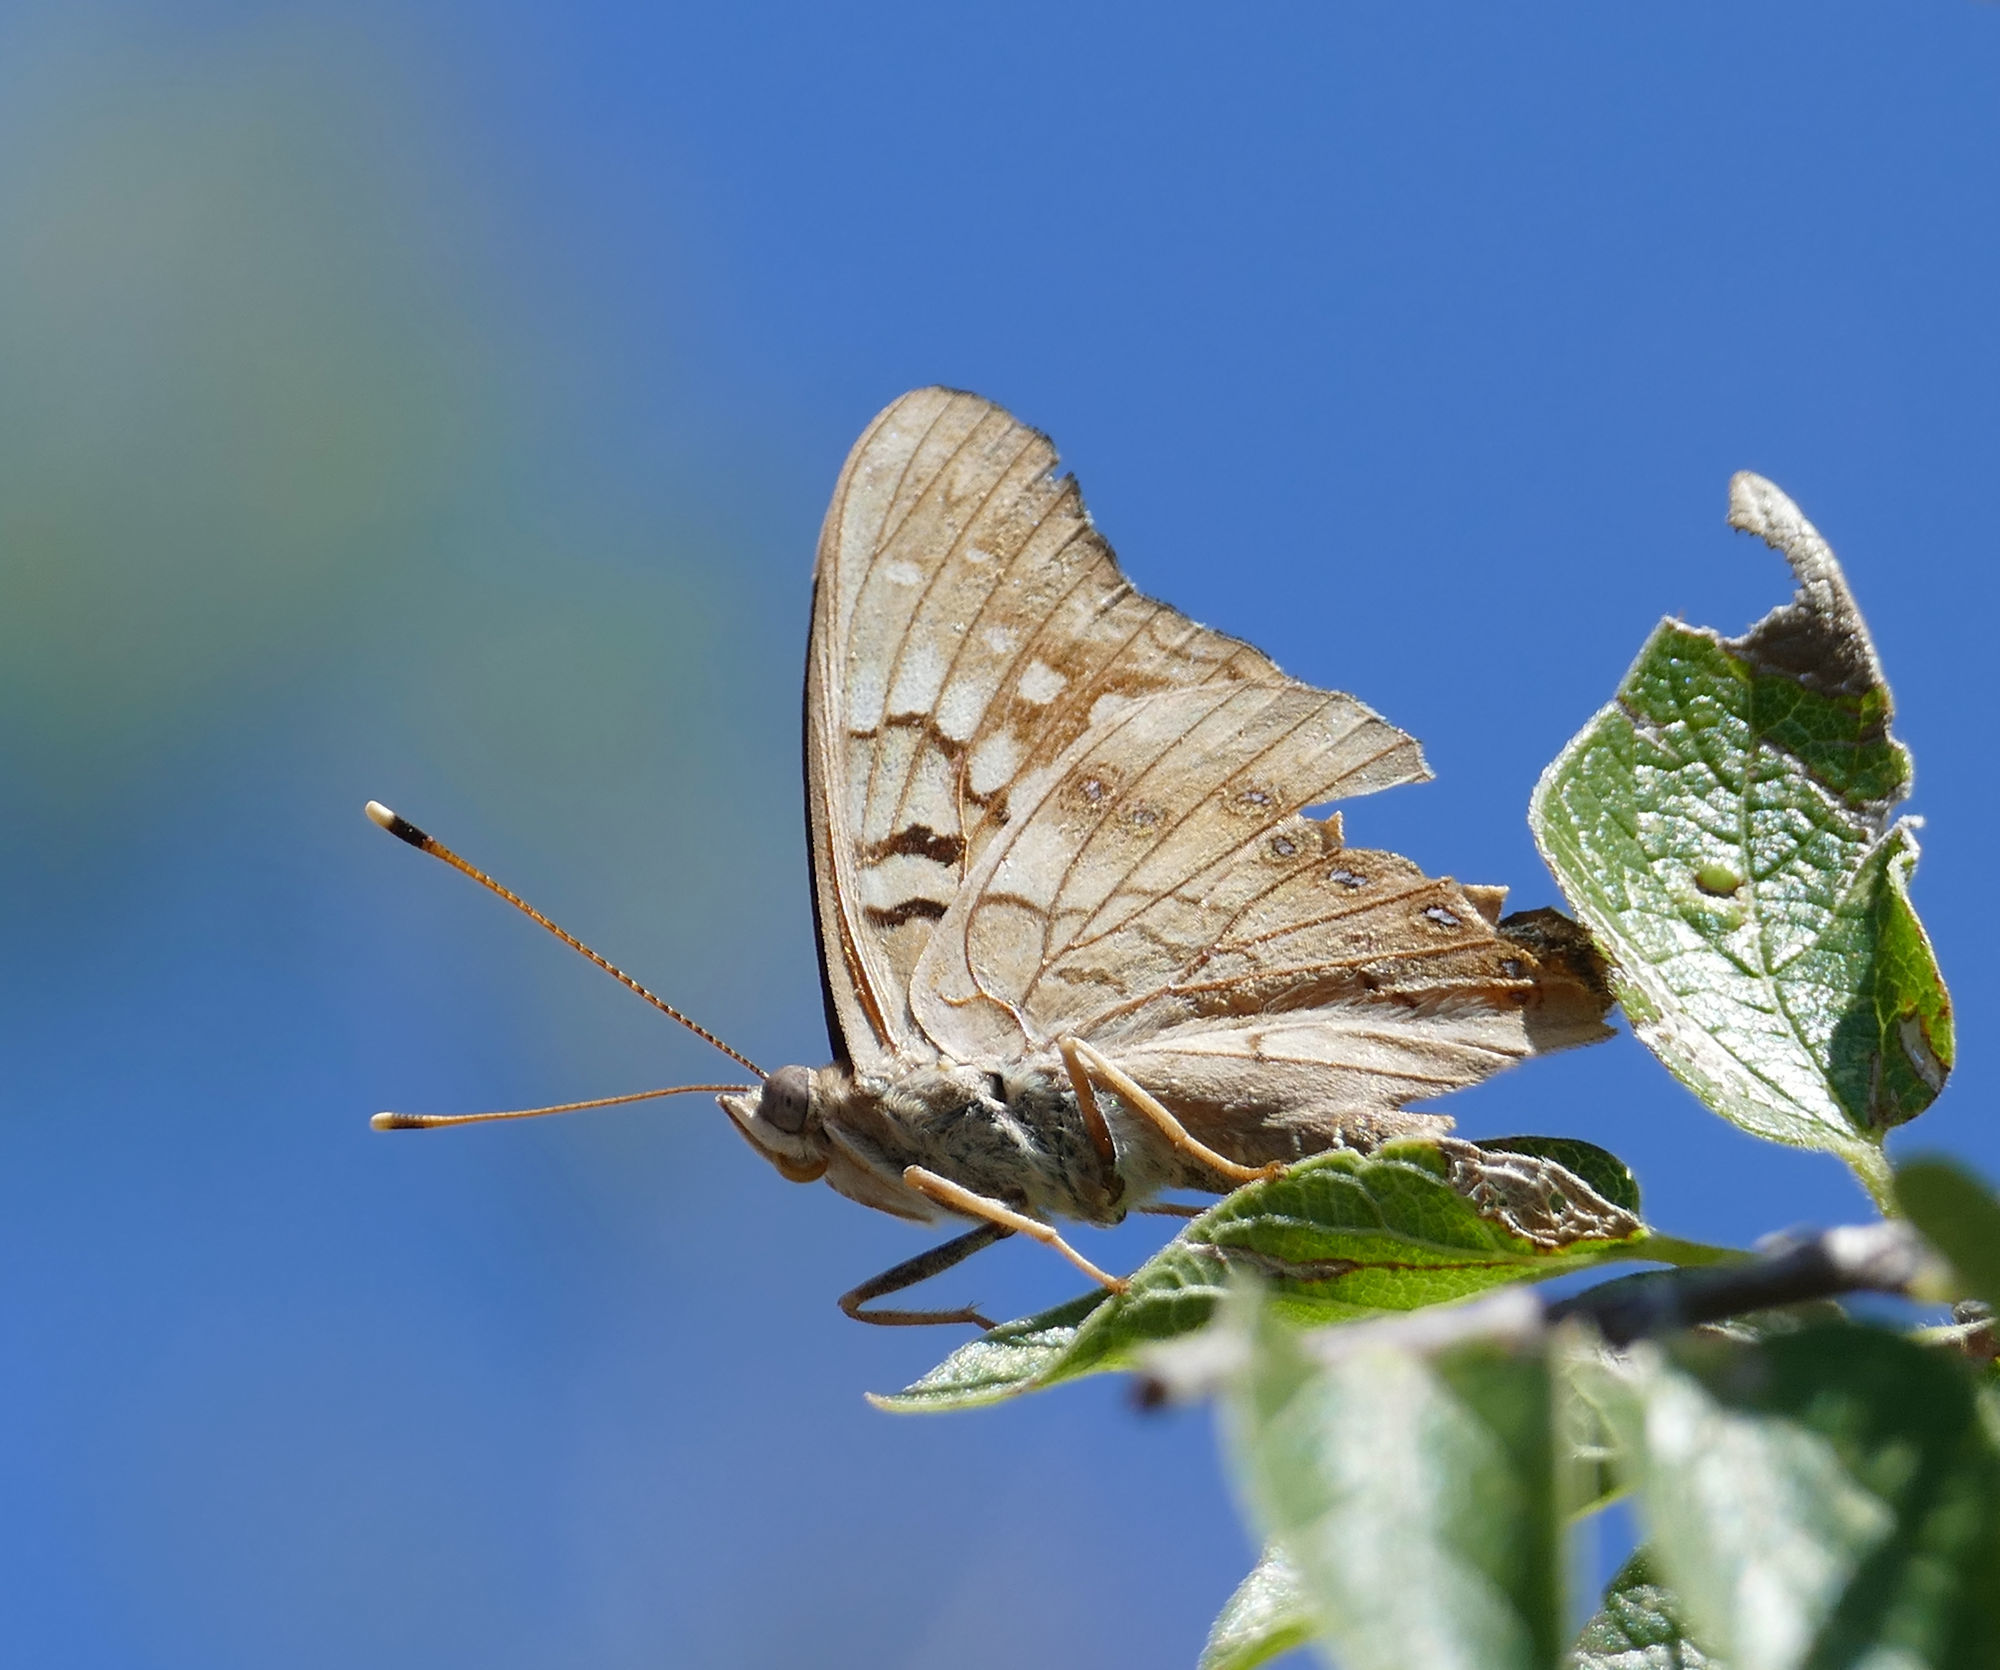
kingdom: Animalia
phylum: Arthropoda
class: Insecta
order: Lepidoptera
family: Nymphalidae
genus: Asterocampa
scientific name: Asterocampa clyton
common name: Tawny emperor
